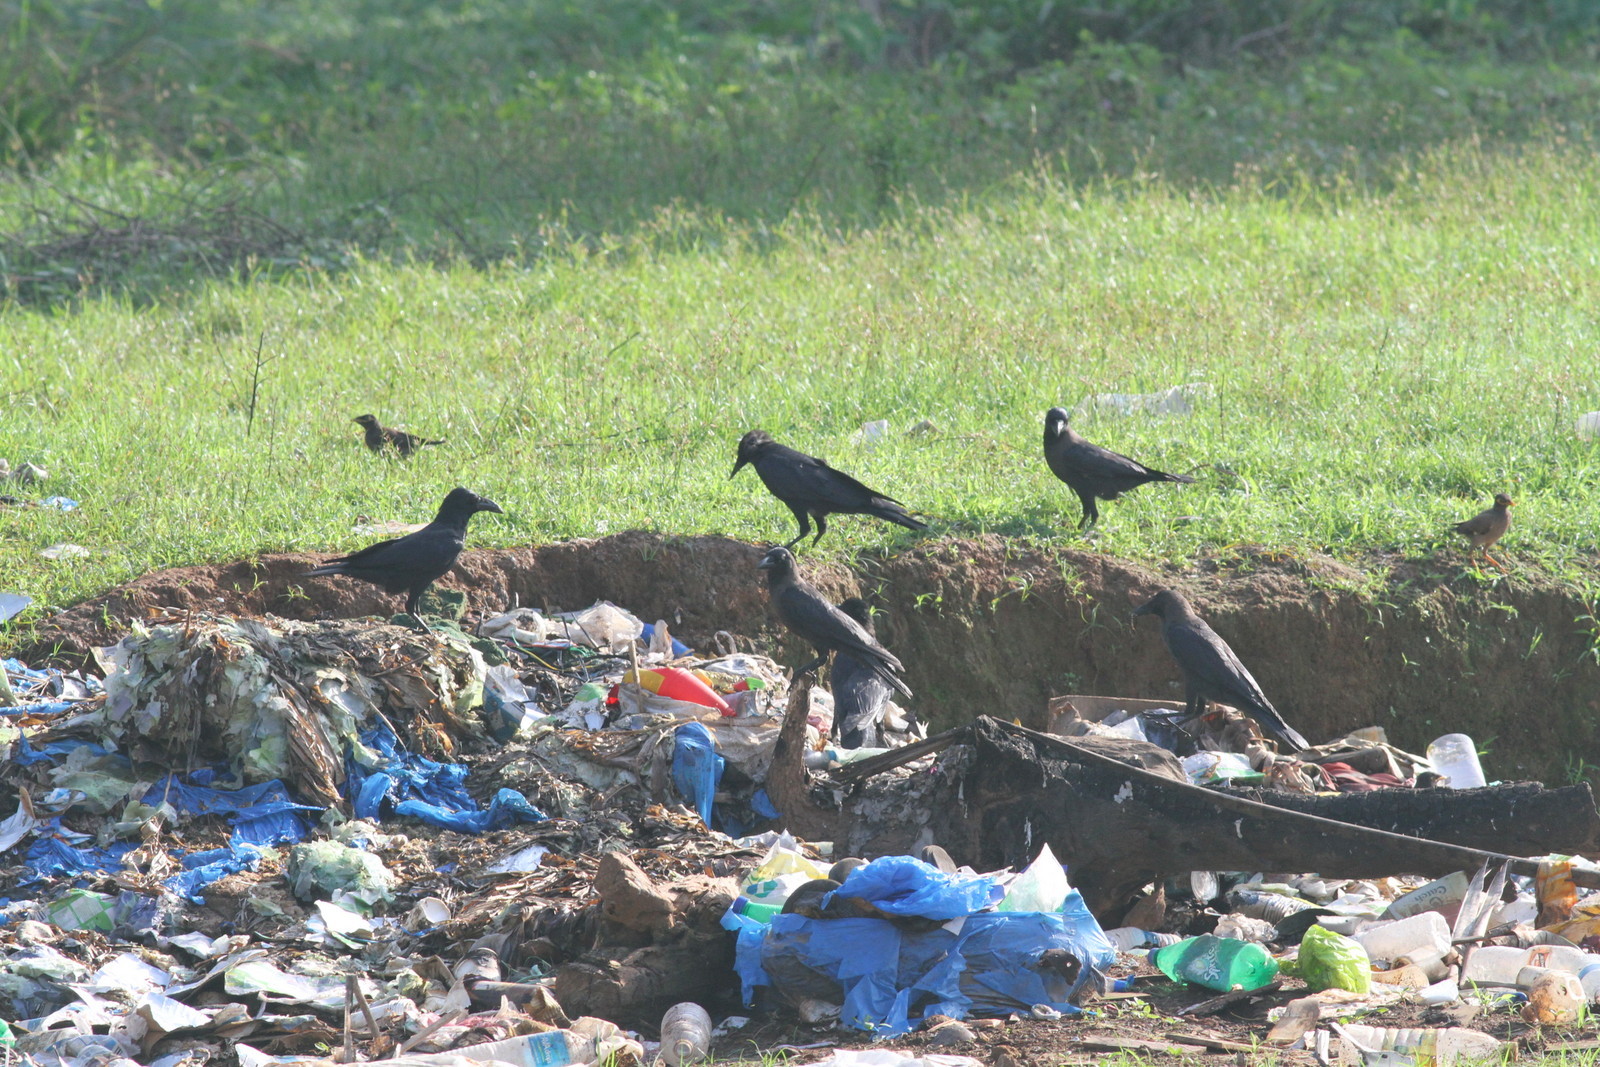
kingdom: Animalia
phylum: Chordata
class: Aves
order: Passeriformes
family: Corvidae
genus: Corvus
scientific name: Corvus splendens
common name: House crow
